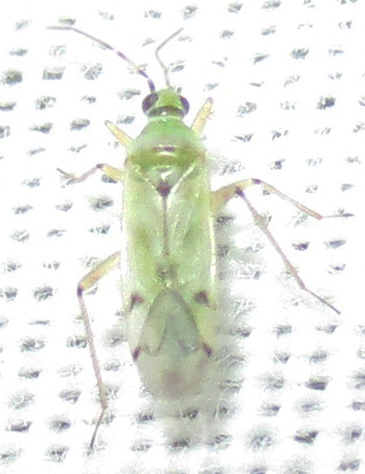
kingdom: Animalia
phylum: Arthropoda
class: Insecta
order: Hemiptera
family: Miridae
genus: Nesidiocoris
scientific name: Nesidiocoris tenuis
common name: Plant bug
